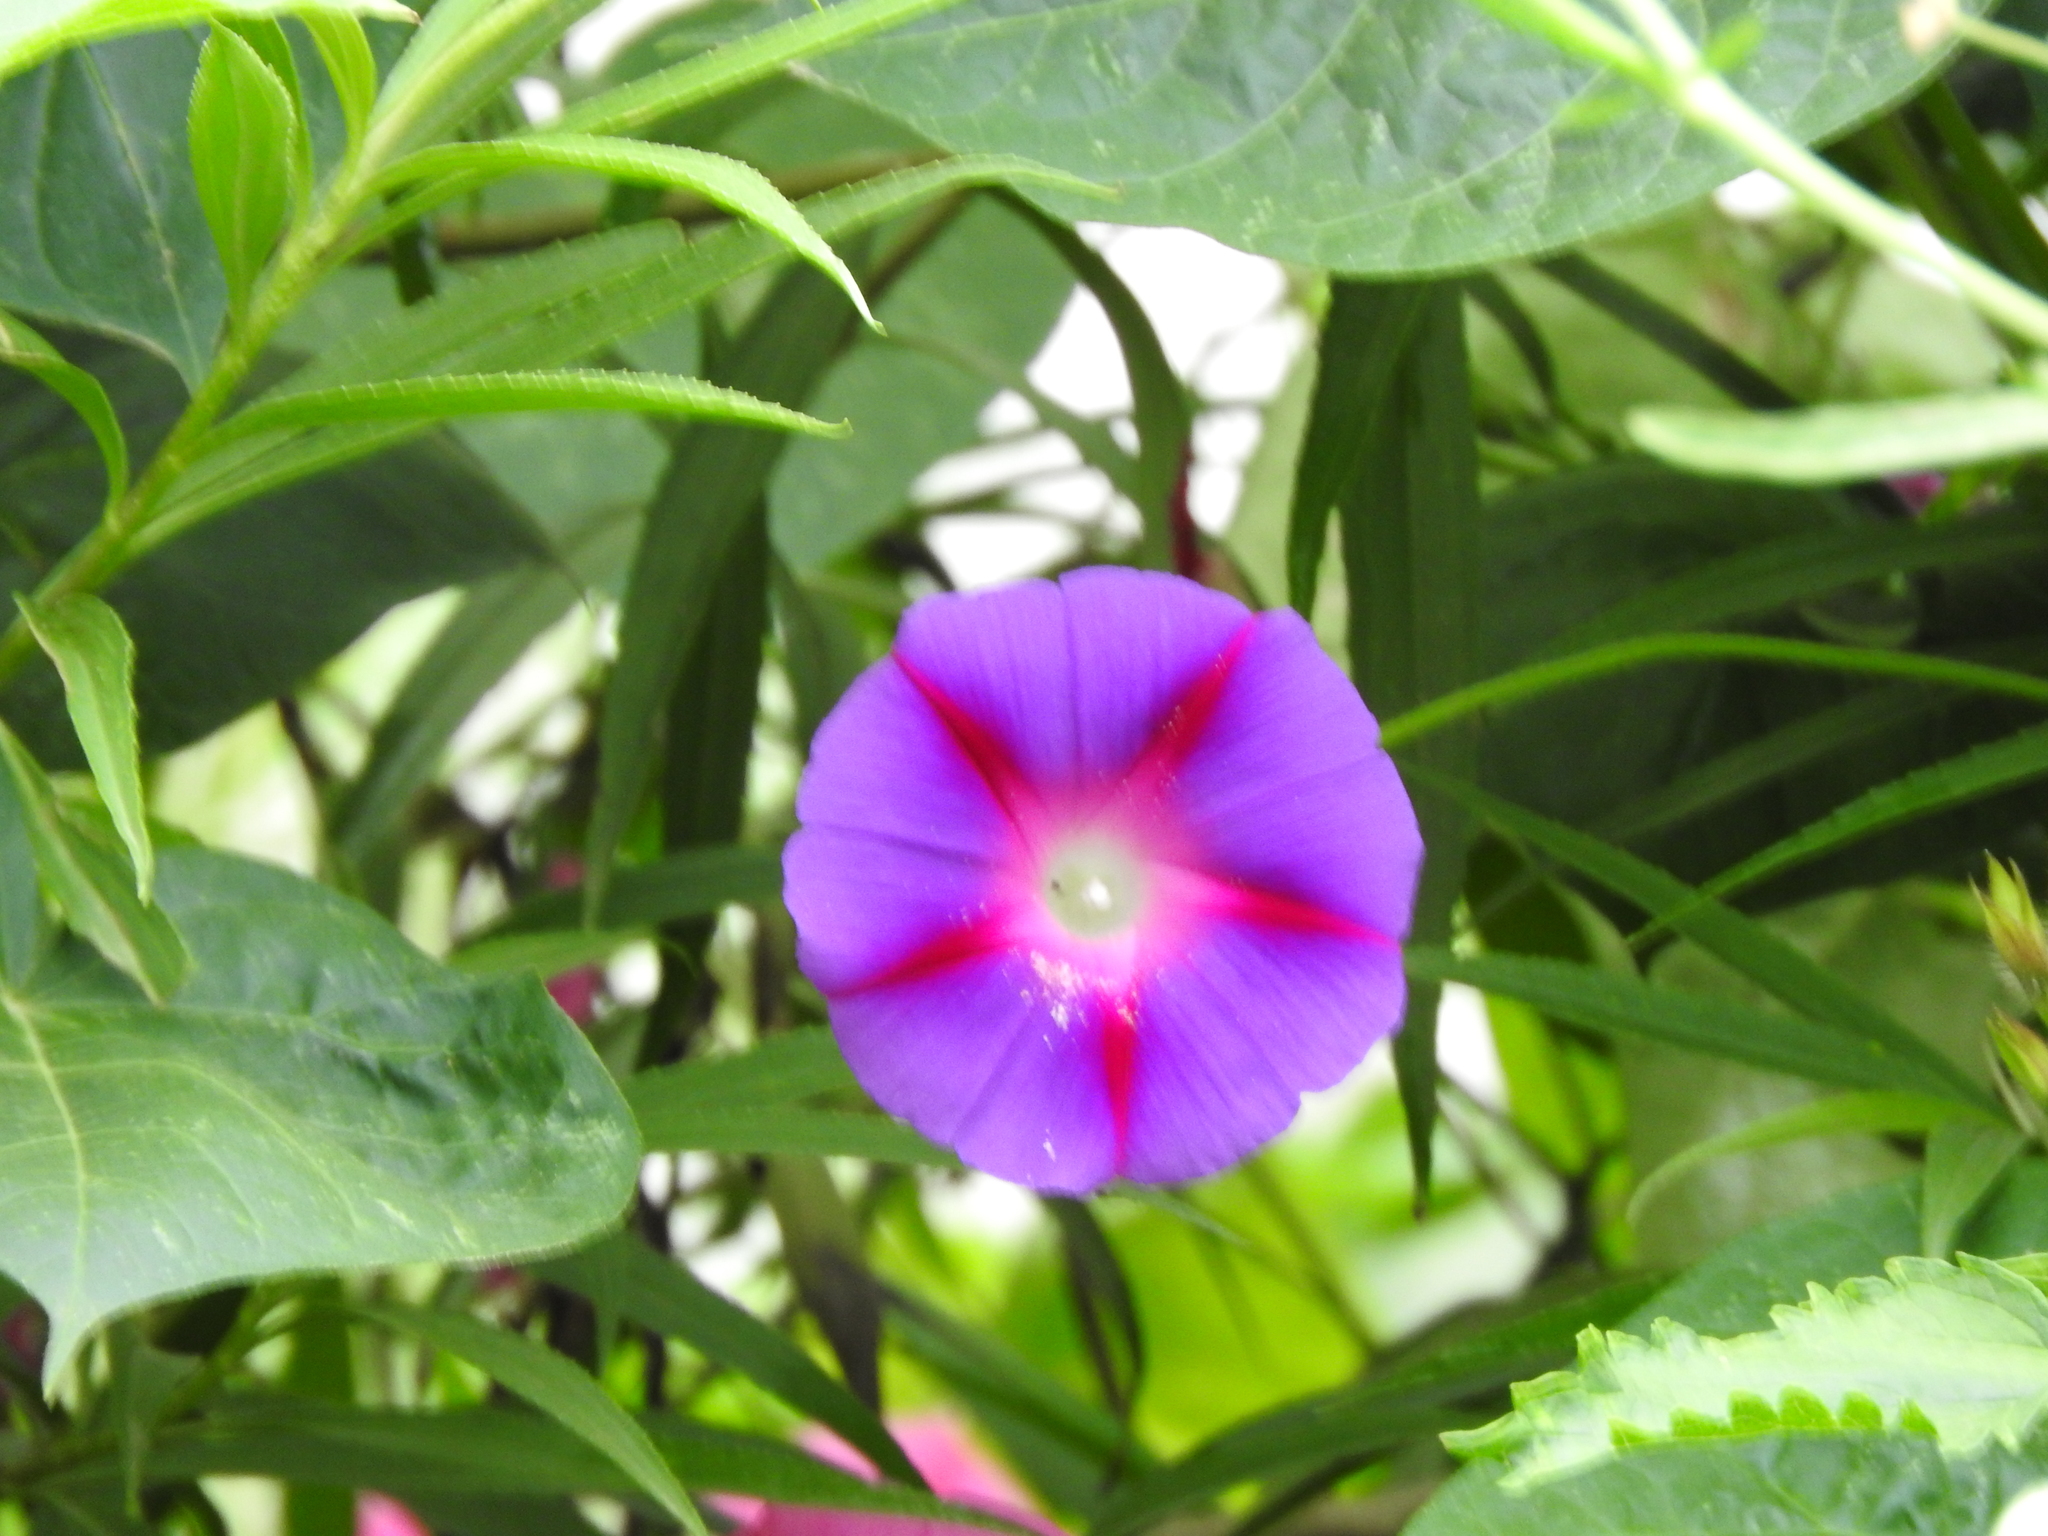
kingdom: Plantae
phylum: Tracheophyta
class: Magnoliopsida
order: Solanales
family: Convolvulaceae
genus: Ipomoea
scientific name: Ipomoea purpurea
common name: Common morning-glory
